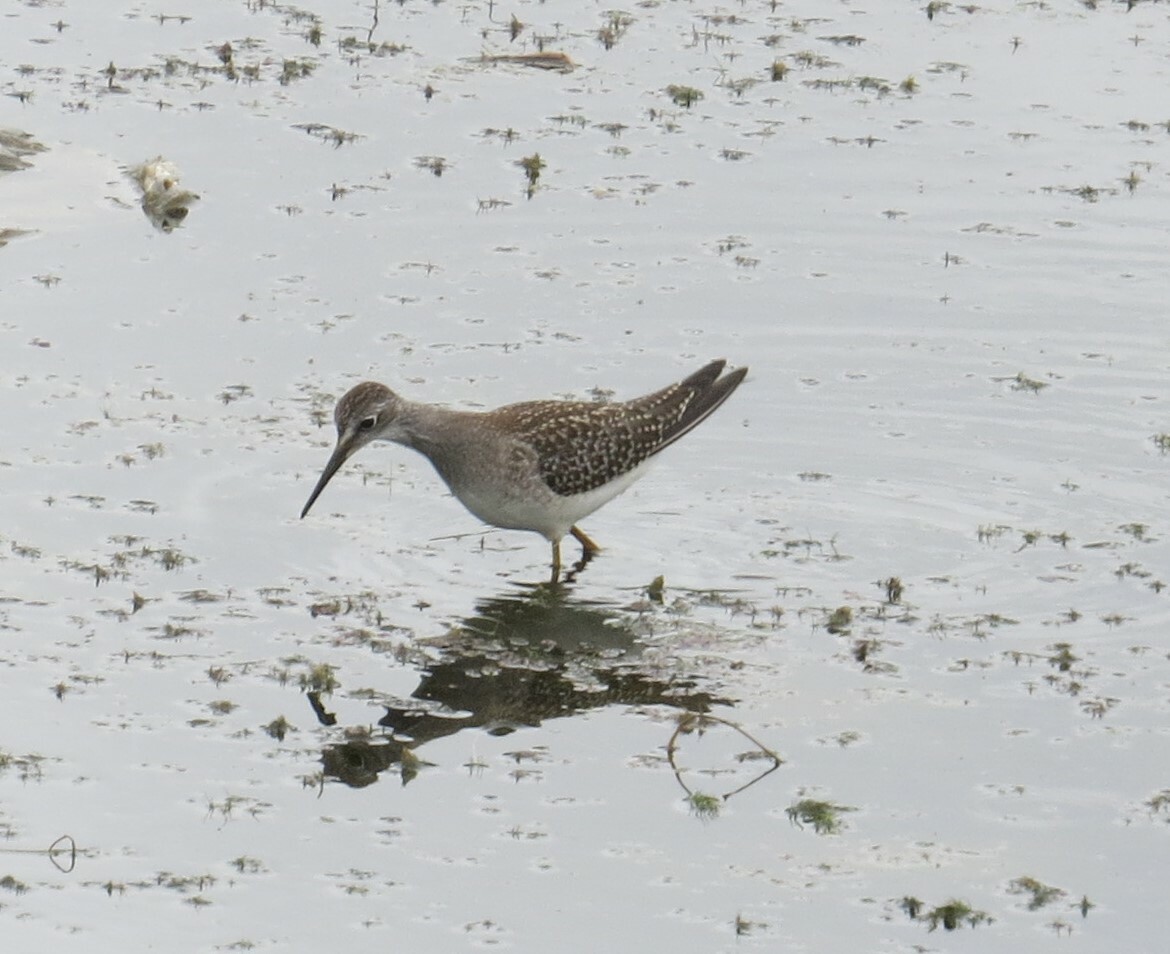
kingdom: Animalia
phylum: Chordata
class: Aves
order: Charadriiformes
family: Scolopacidae
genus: Tringa
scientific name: Tringa flavipes
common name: Lesser yellowlegs
